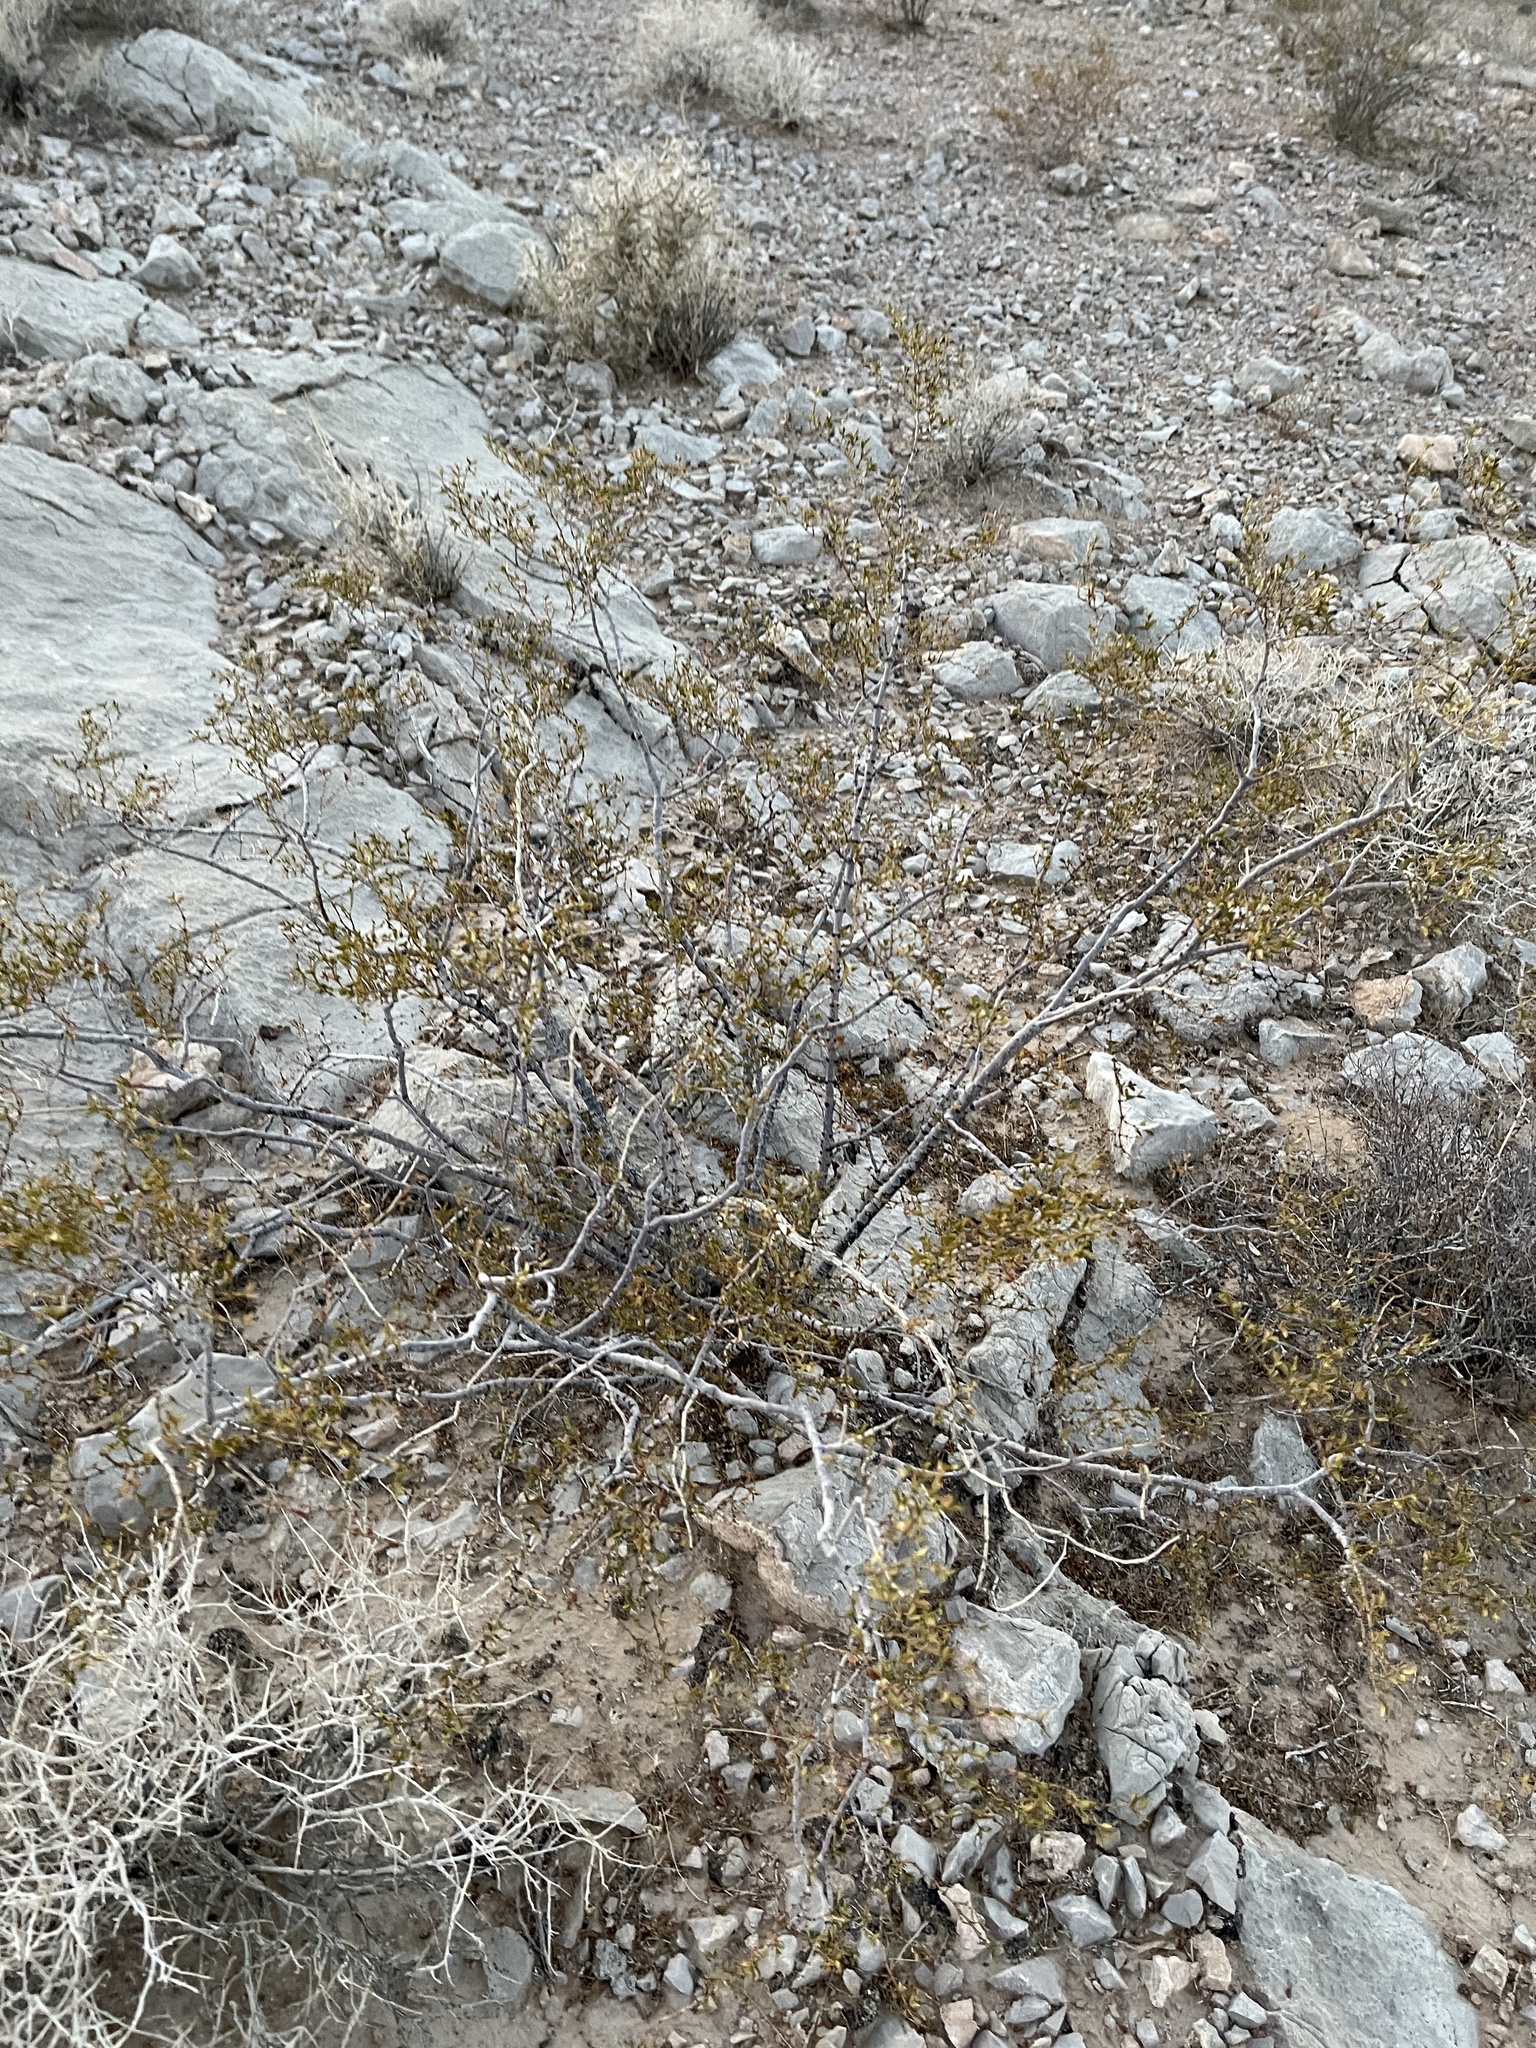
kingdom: Plantae
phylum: Tracheophyta
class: Magnoliopsida
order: Zygophyllales
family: Zygophyllaceae
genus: Larrea
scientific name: Larrea tridentata
